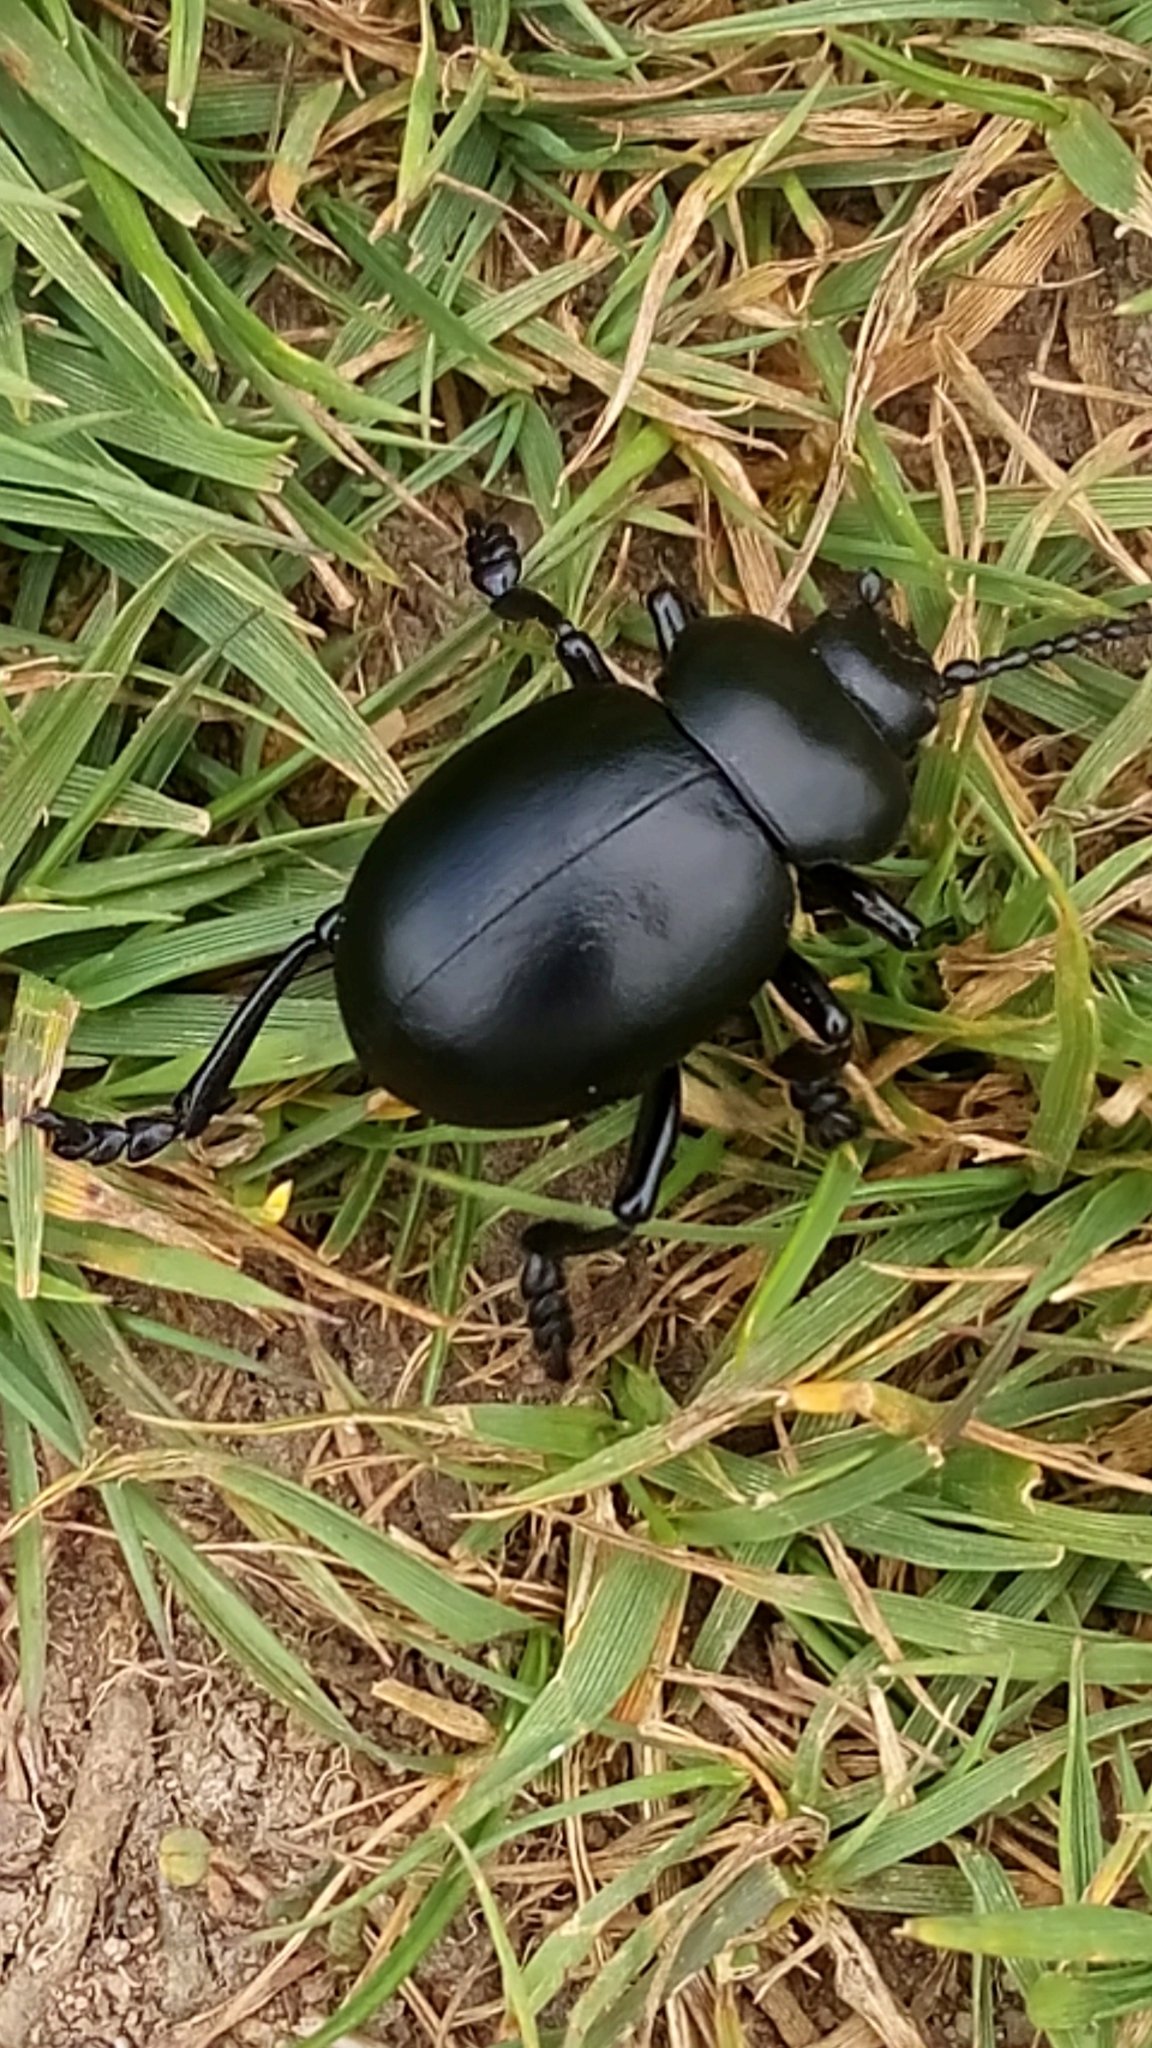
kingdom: Animalia
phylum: Arthropoda
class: Insecta
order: Coleoptera
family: Chrysomelidae
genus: Timarcha
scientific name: Timarcha tenebricosa
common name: Bloody-nosed beetle
